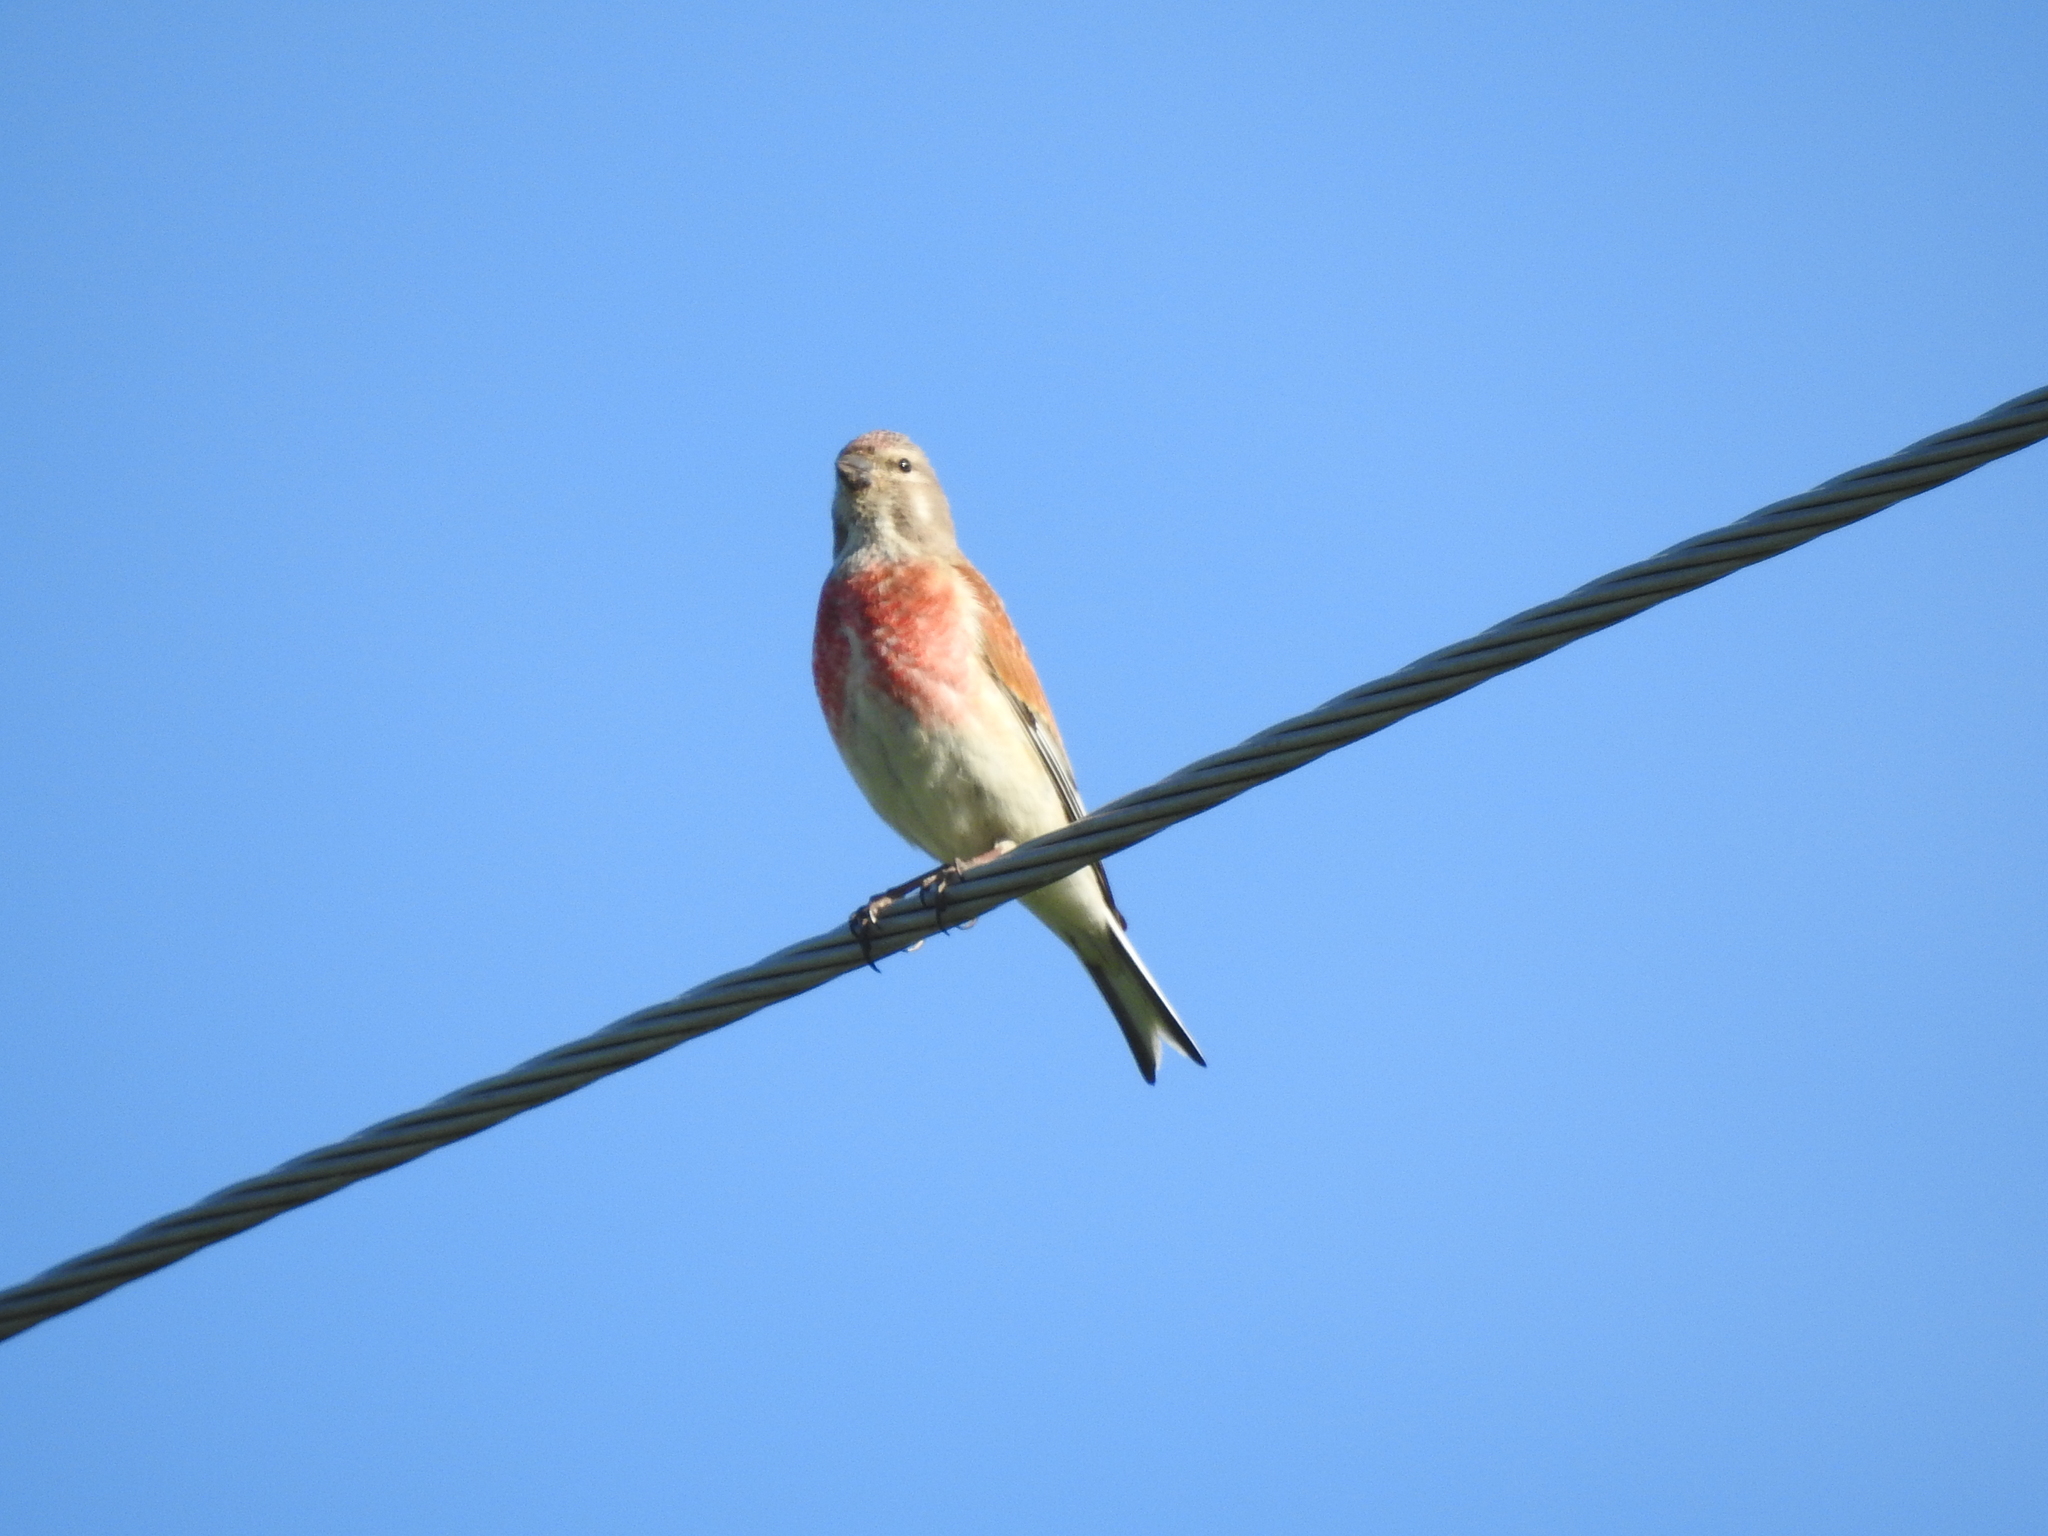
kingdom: Animalia
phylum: Chordata
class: Aves
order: Passeriformes
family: Fringillidae
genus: Linaria
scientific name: Linaria cannabina
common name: Common linnet
